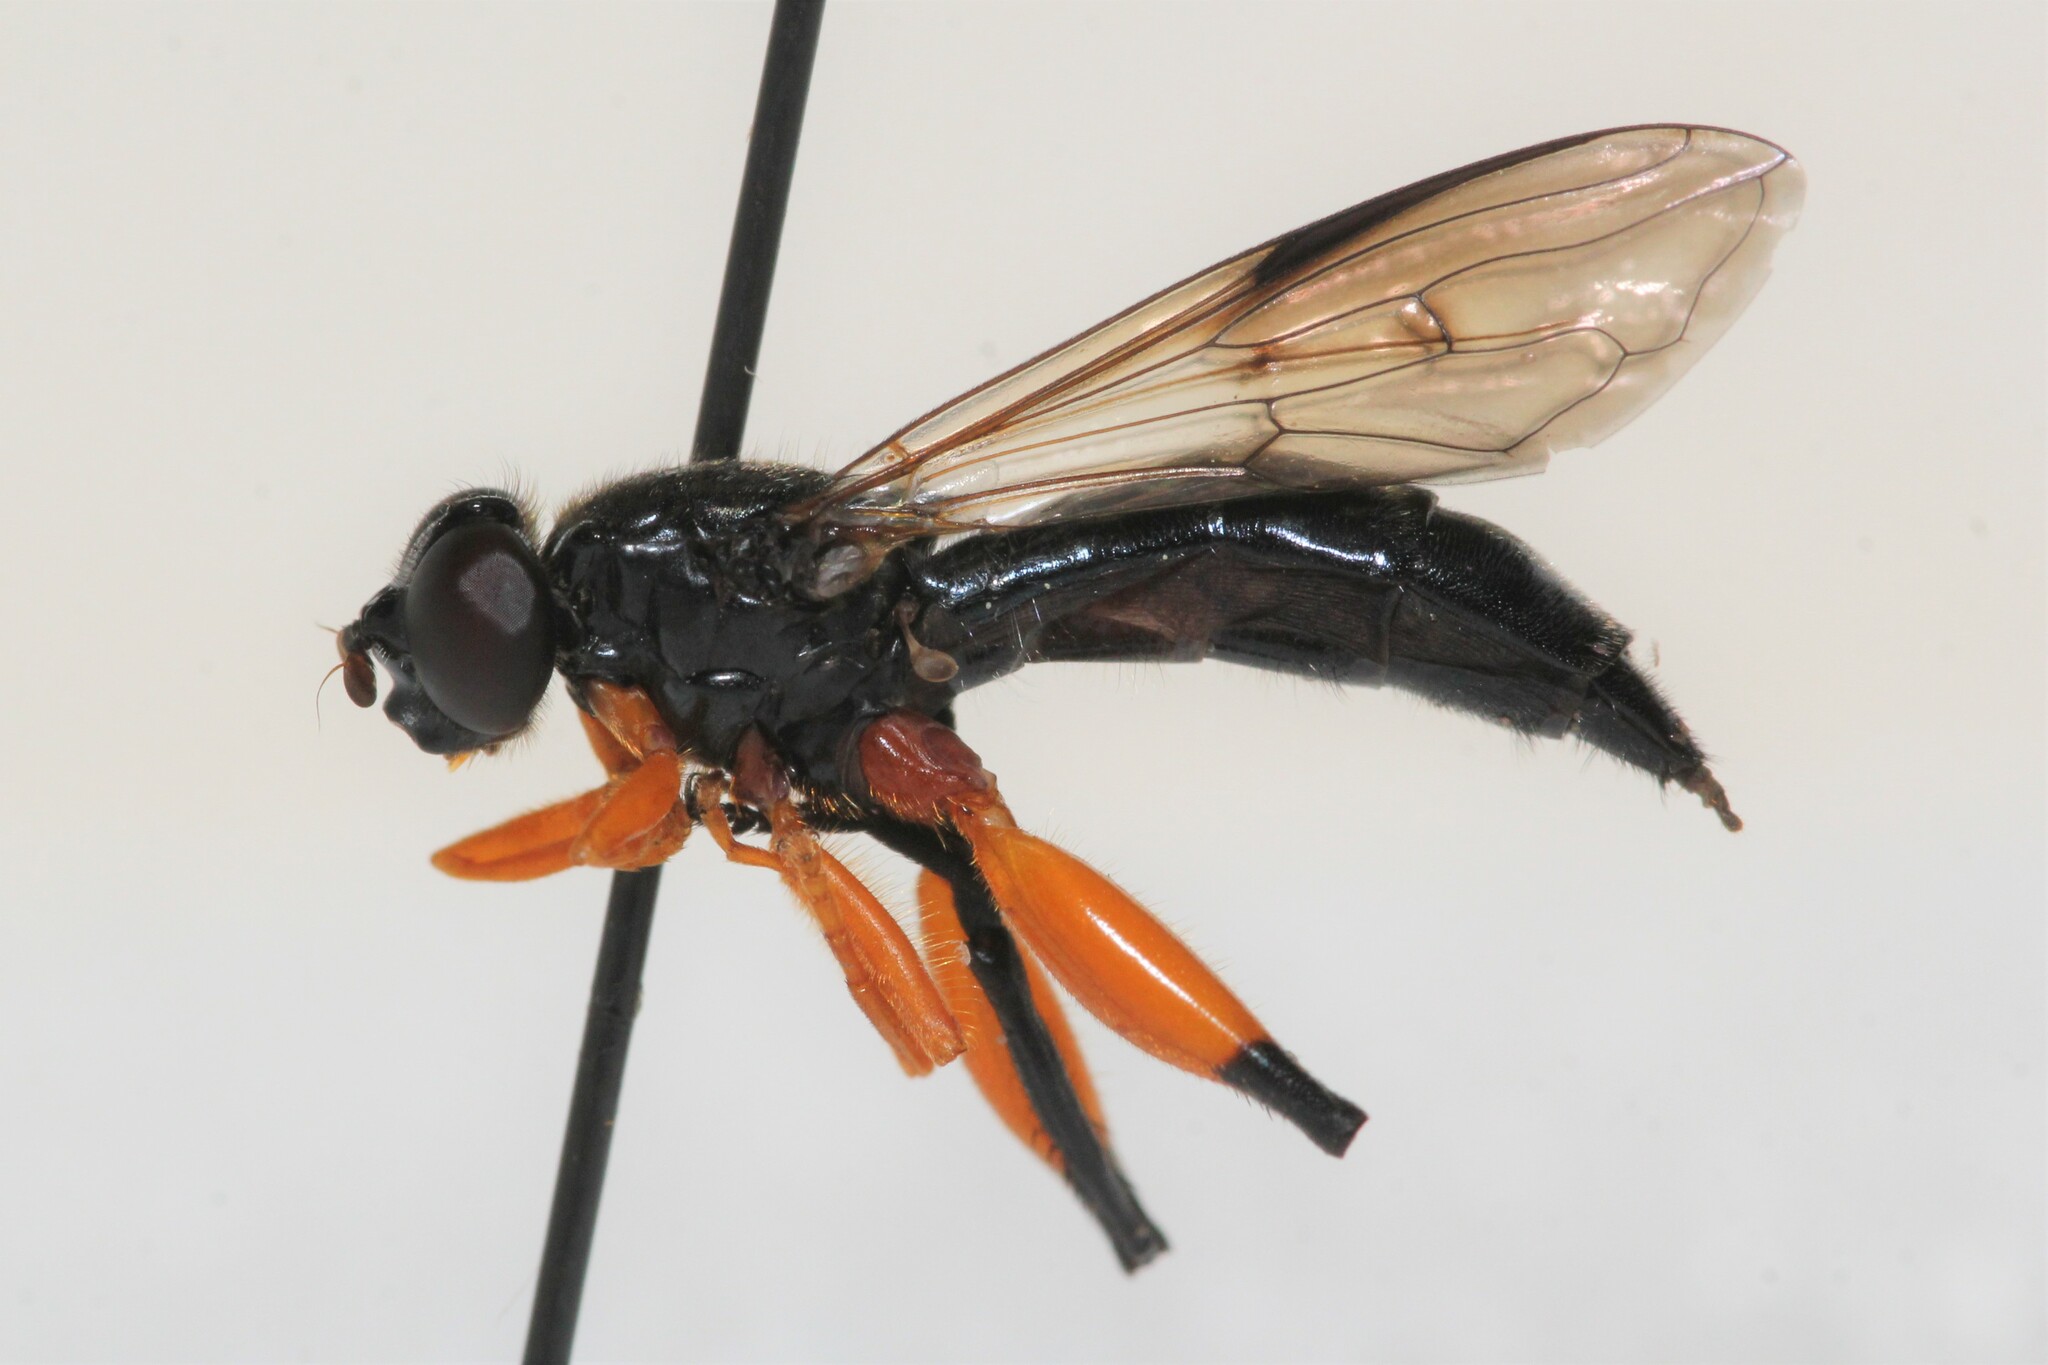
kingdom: Animalia
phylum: Arthropoda
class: Insecta
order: Diptera
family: Syrphidae
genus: Chalcosyrphus
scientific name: Chalcosyrphus vecors
